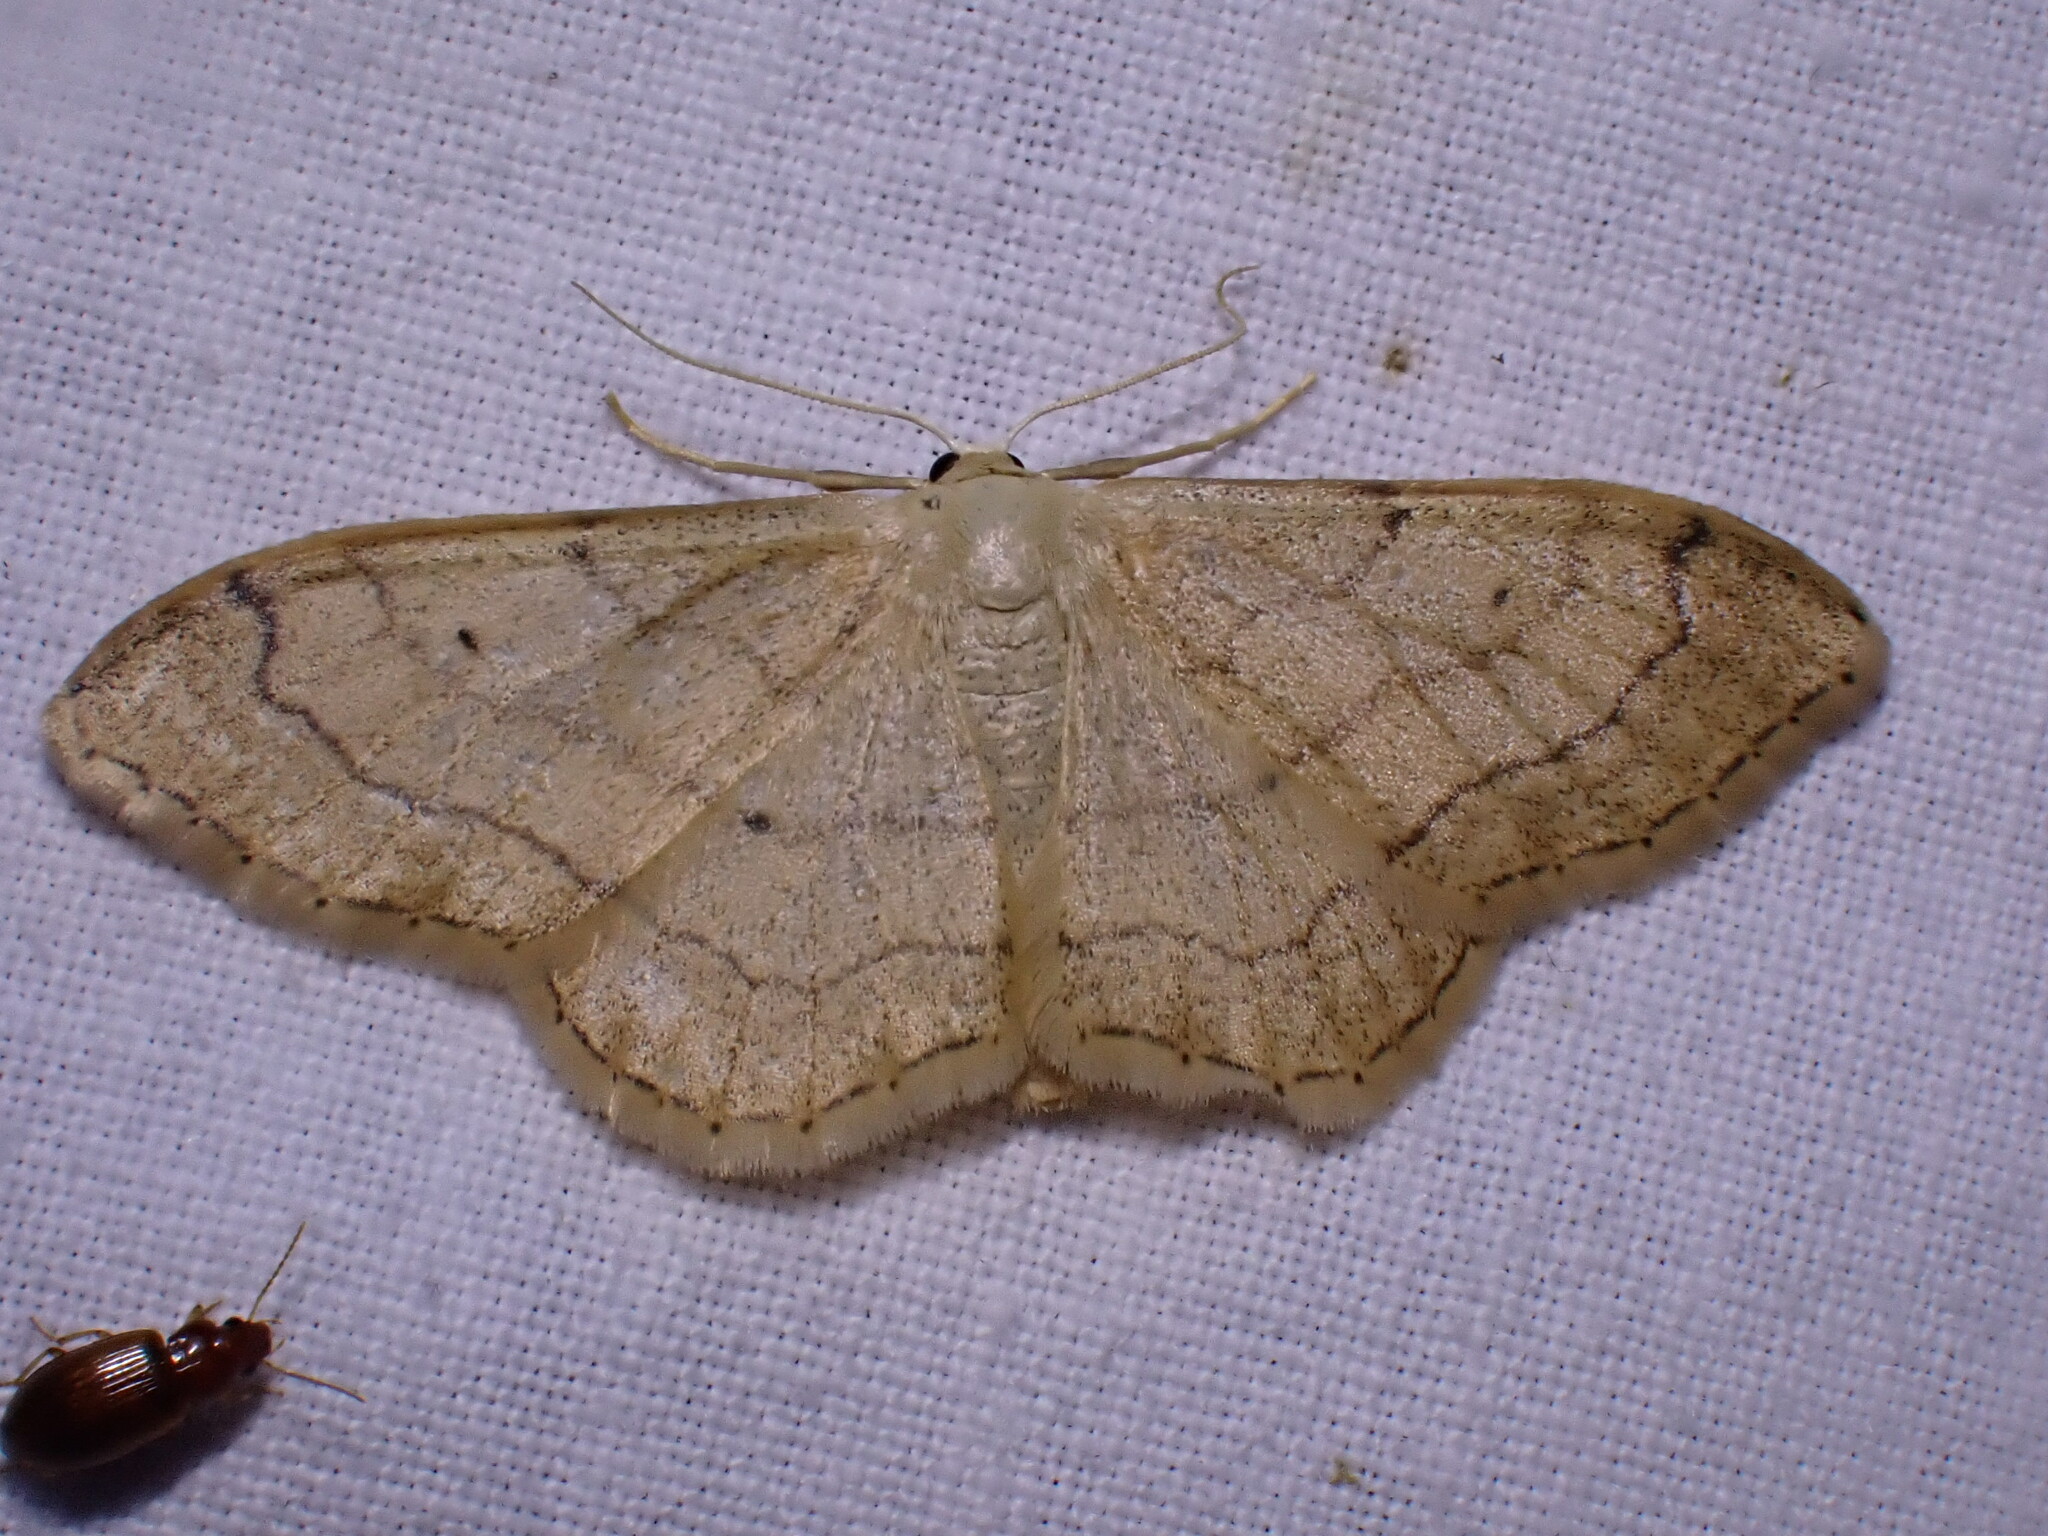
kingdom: Animalia
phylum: Arthropoda
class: Insecta
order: Lepidoptera
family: Geometridae
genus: Idaea
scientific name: Idaea aversata
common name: Riband wave
